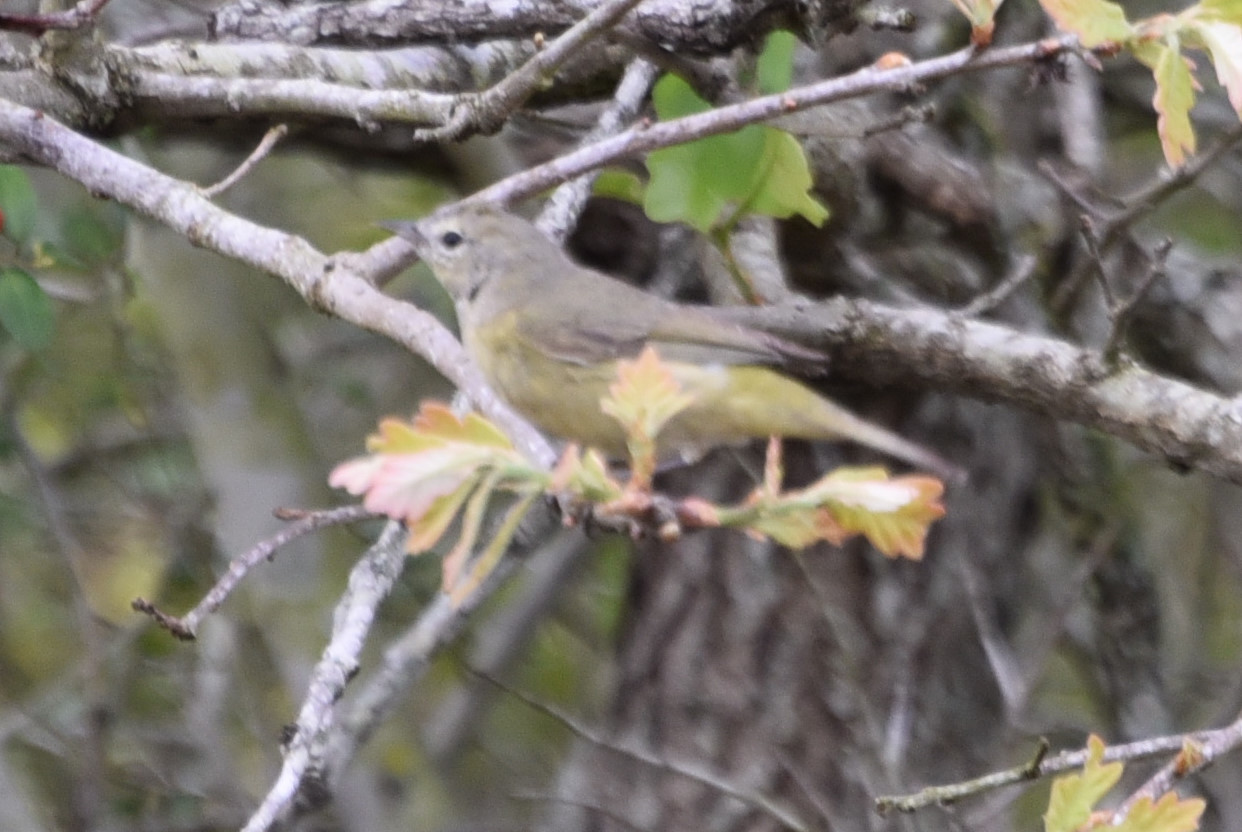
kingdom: Animalia
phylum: Chordata
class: Aves
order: Passeriformes
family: Parulidae
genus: Leiothlypis
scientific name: Leiothlypis celata
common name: Orange-crowned warbler
